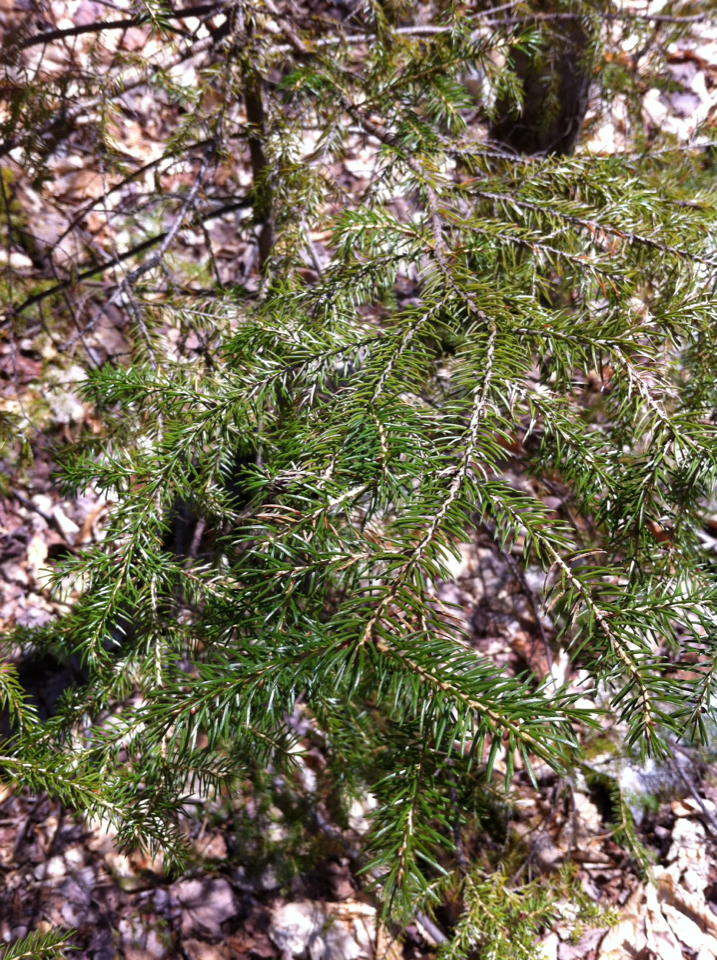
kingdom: Plantae
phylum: Tracheophyta
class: Pinopsida
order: Pinales
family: Pinaceae
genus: Picea
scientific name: Picea rubens
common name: Red spruce
